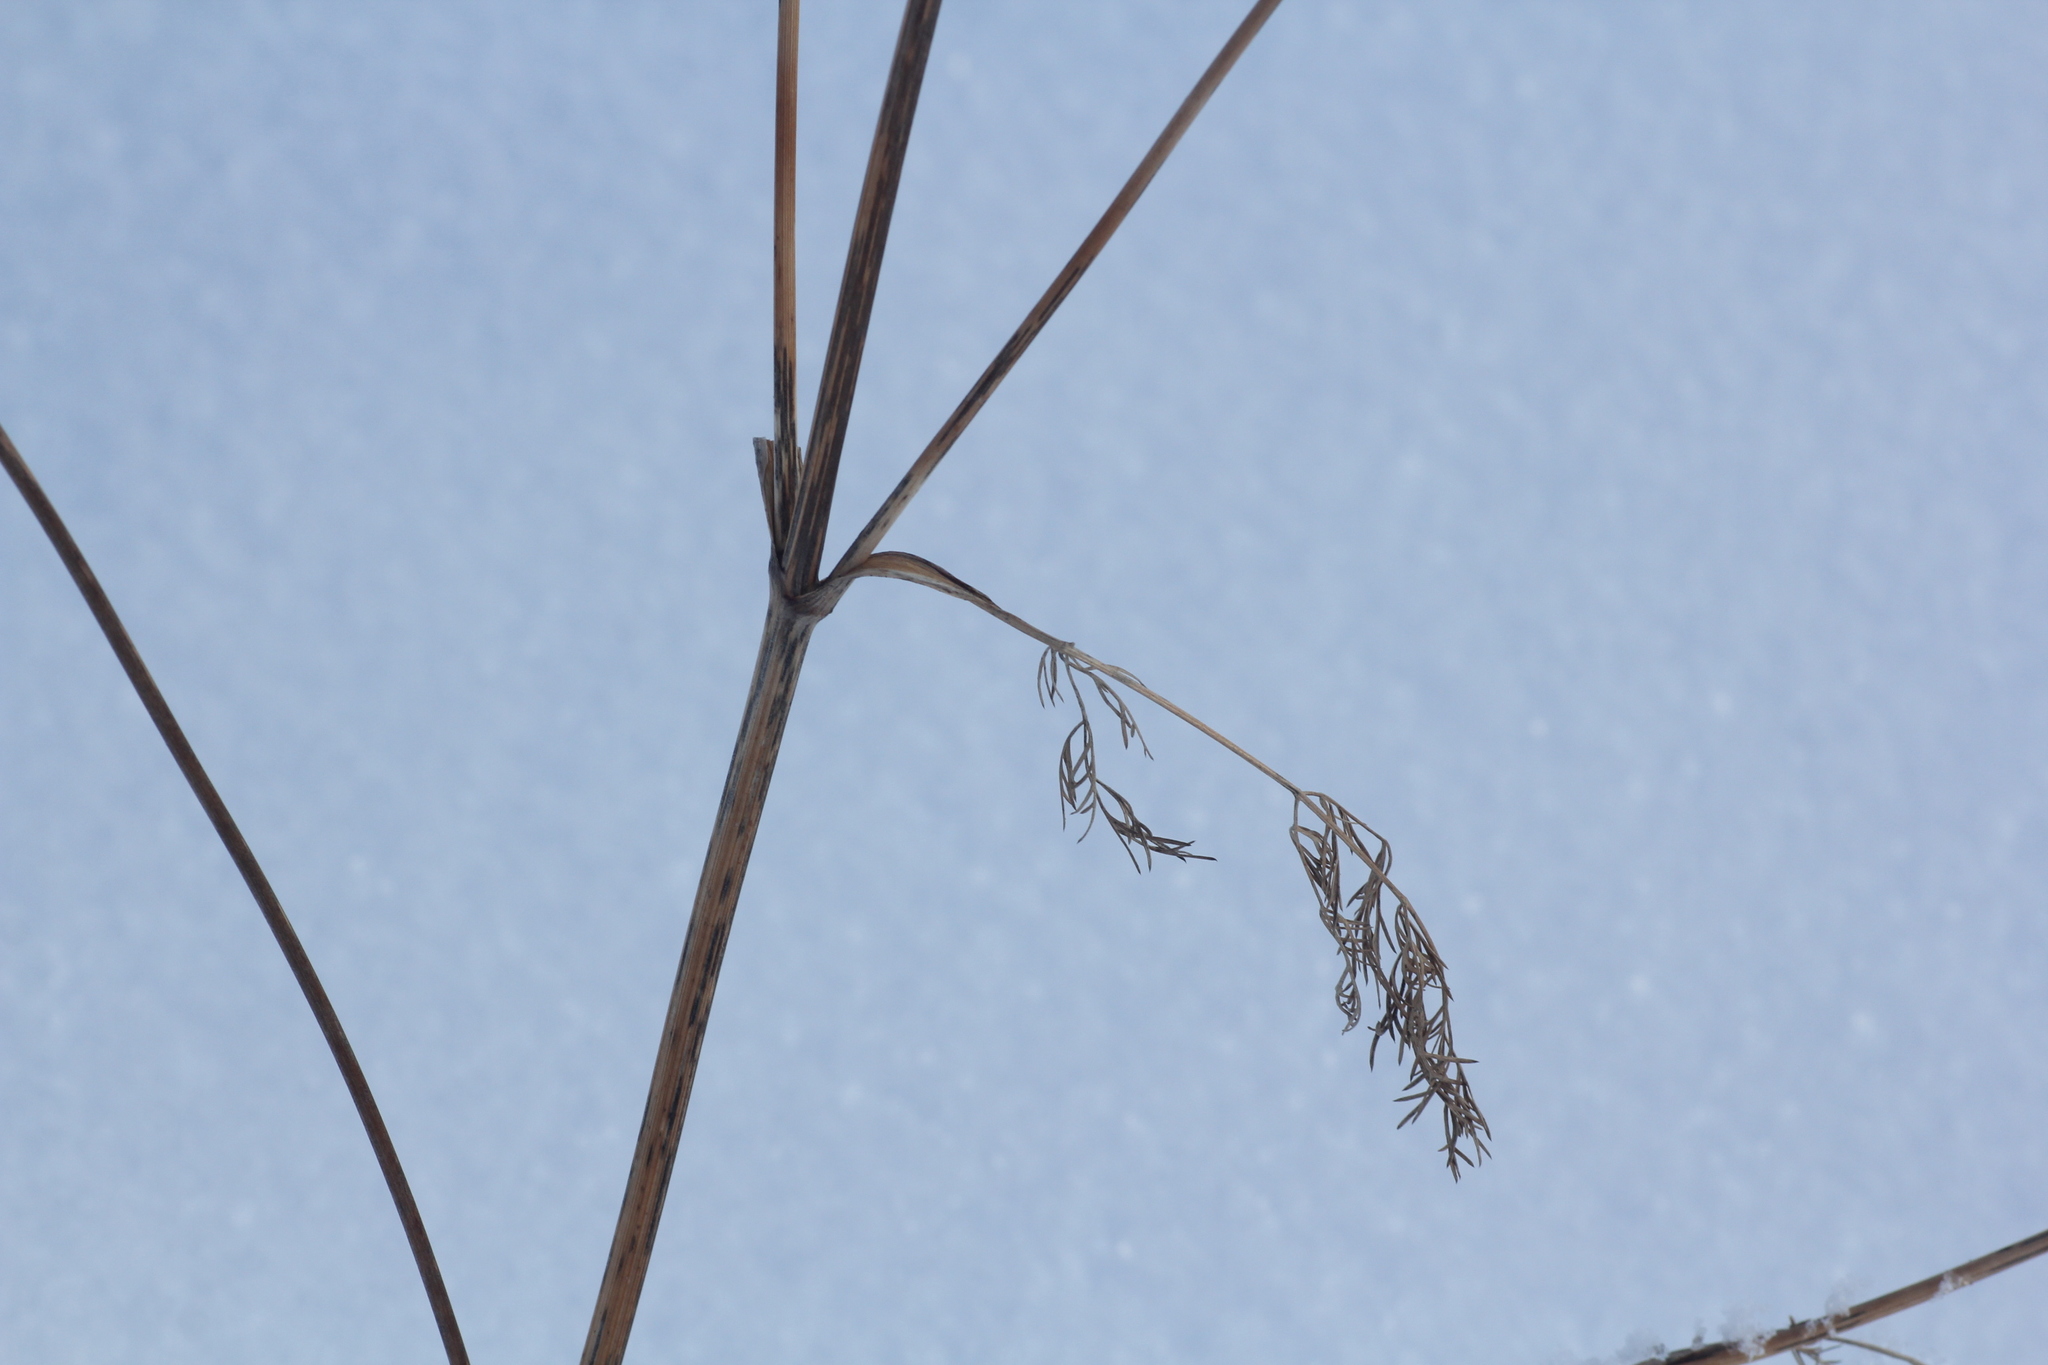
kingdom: Plantae
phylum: Tracheophyta
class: Magnoliopsida
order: Apiales
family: Apiaceae
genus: Kitagawia
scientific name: Kitagawia baicalensis
